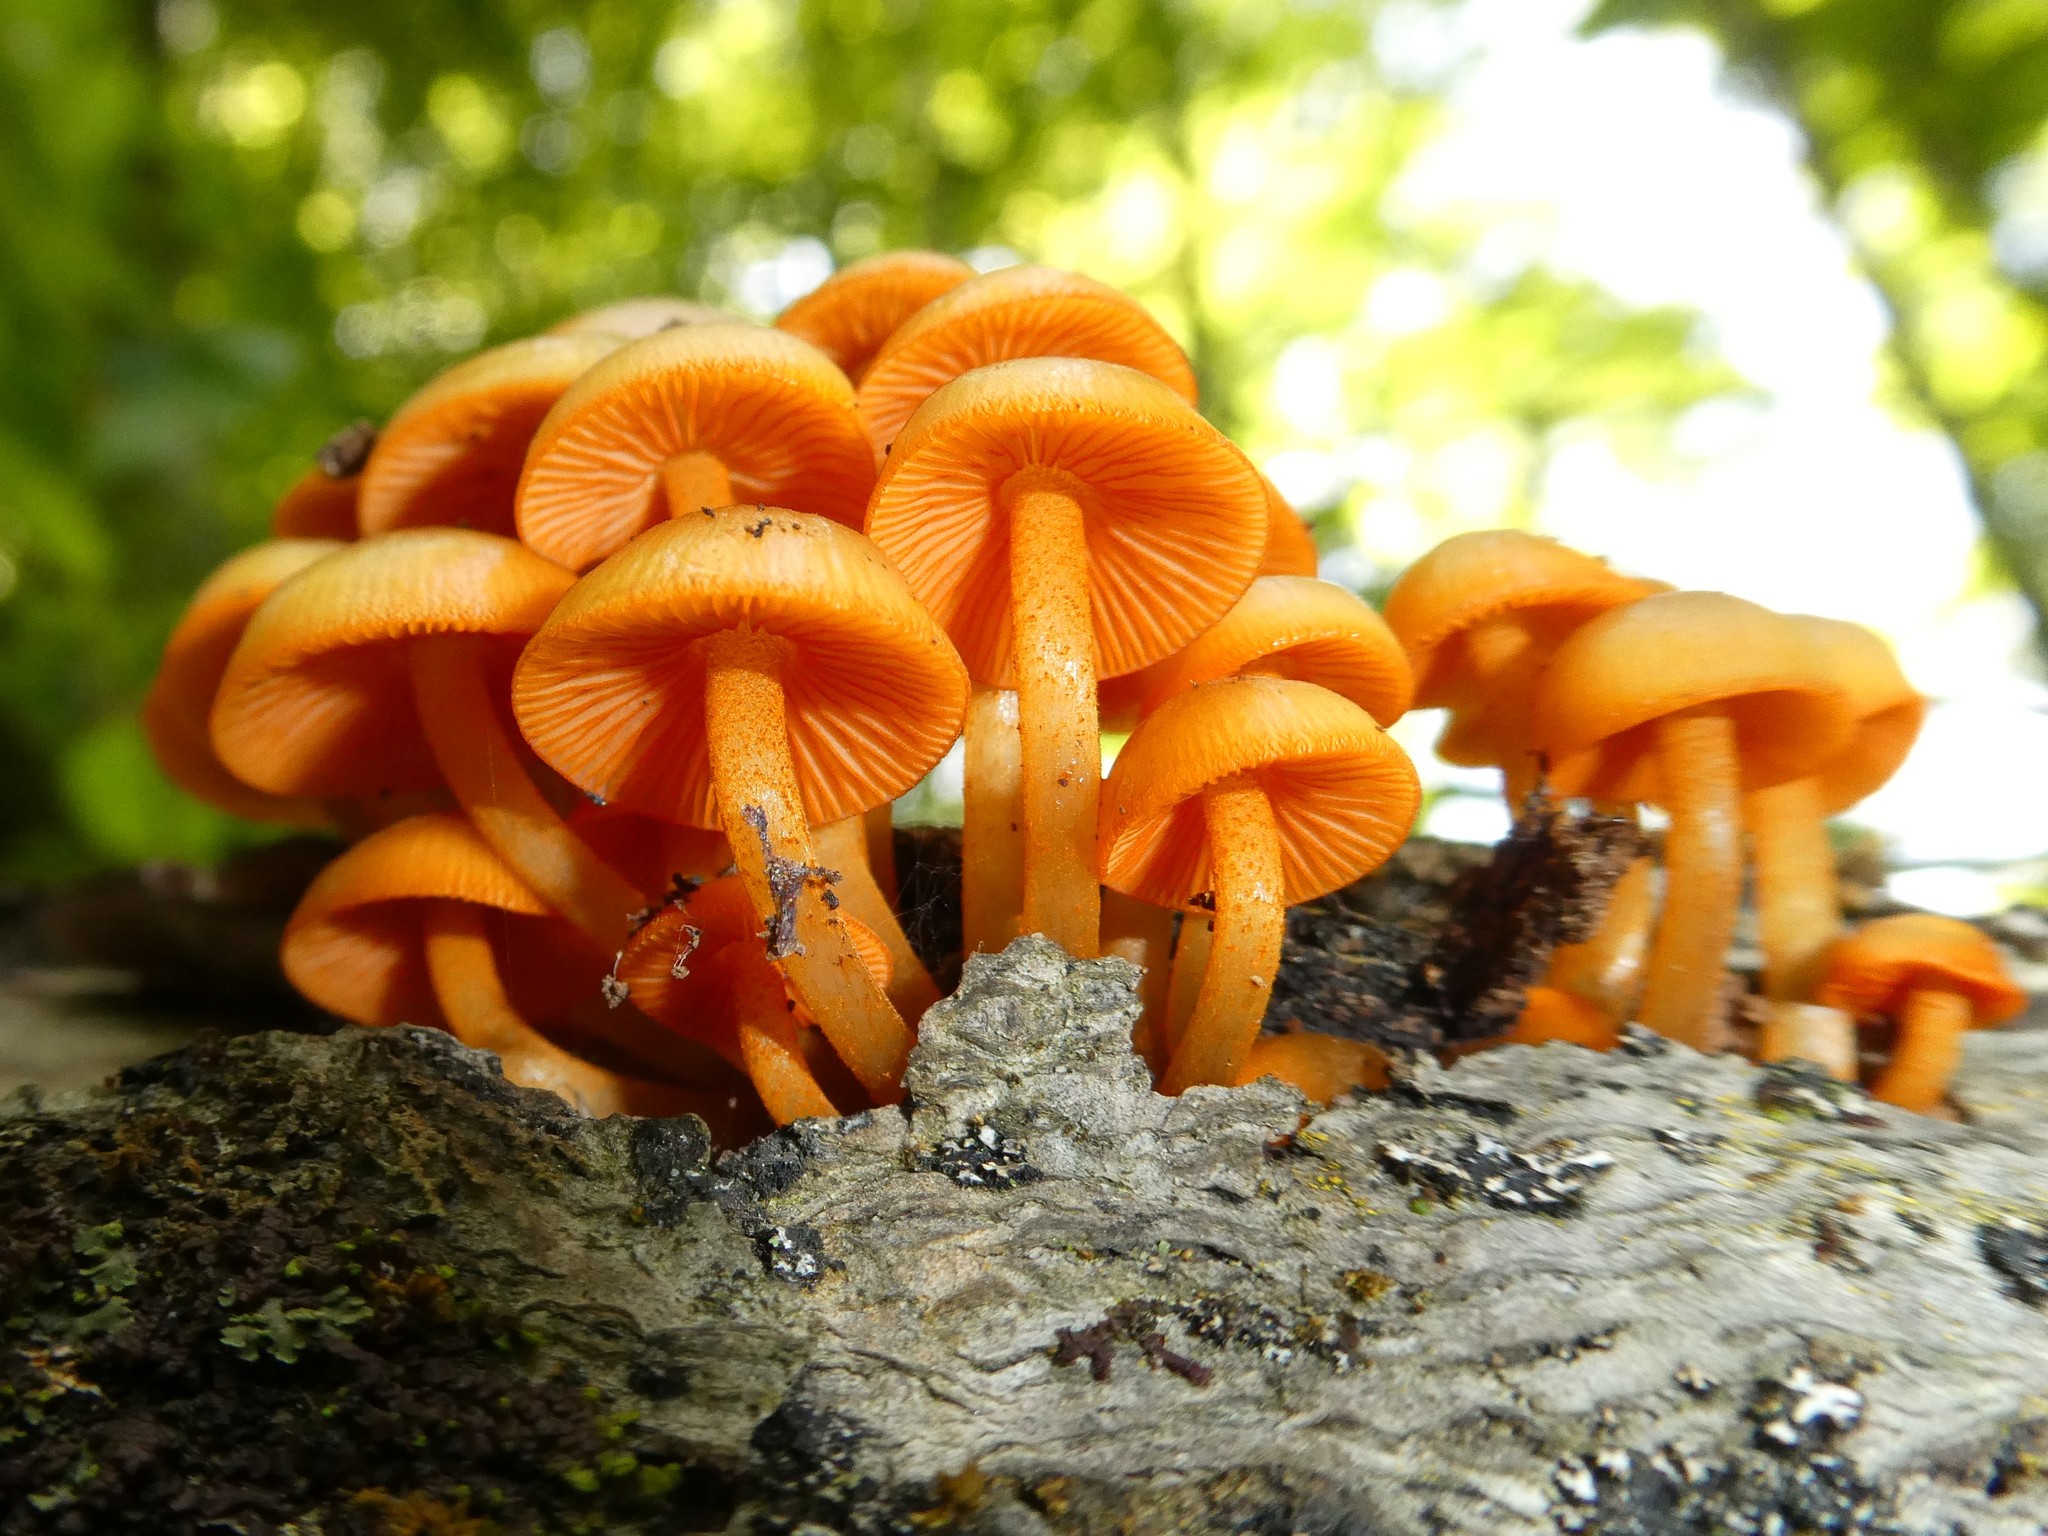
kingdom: Fungi
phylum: Basidiomycota
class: Agaricomycetes
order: Agaricales
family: Mycenaceae
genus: Mycena
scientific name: Mycena leaiana
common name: Orange mycena
